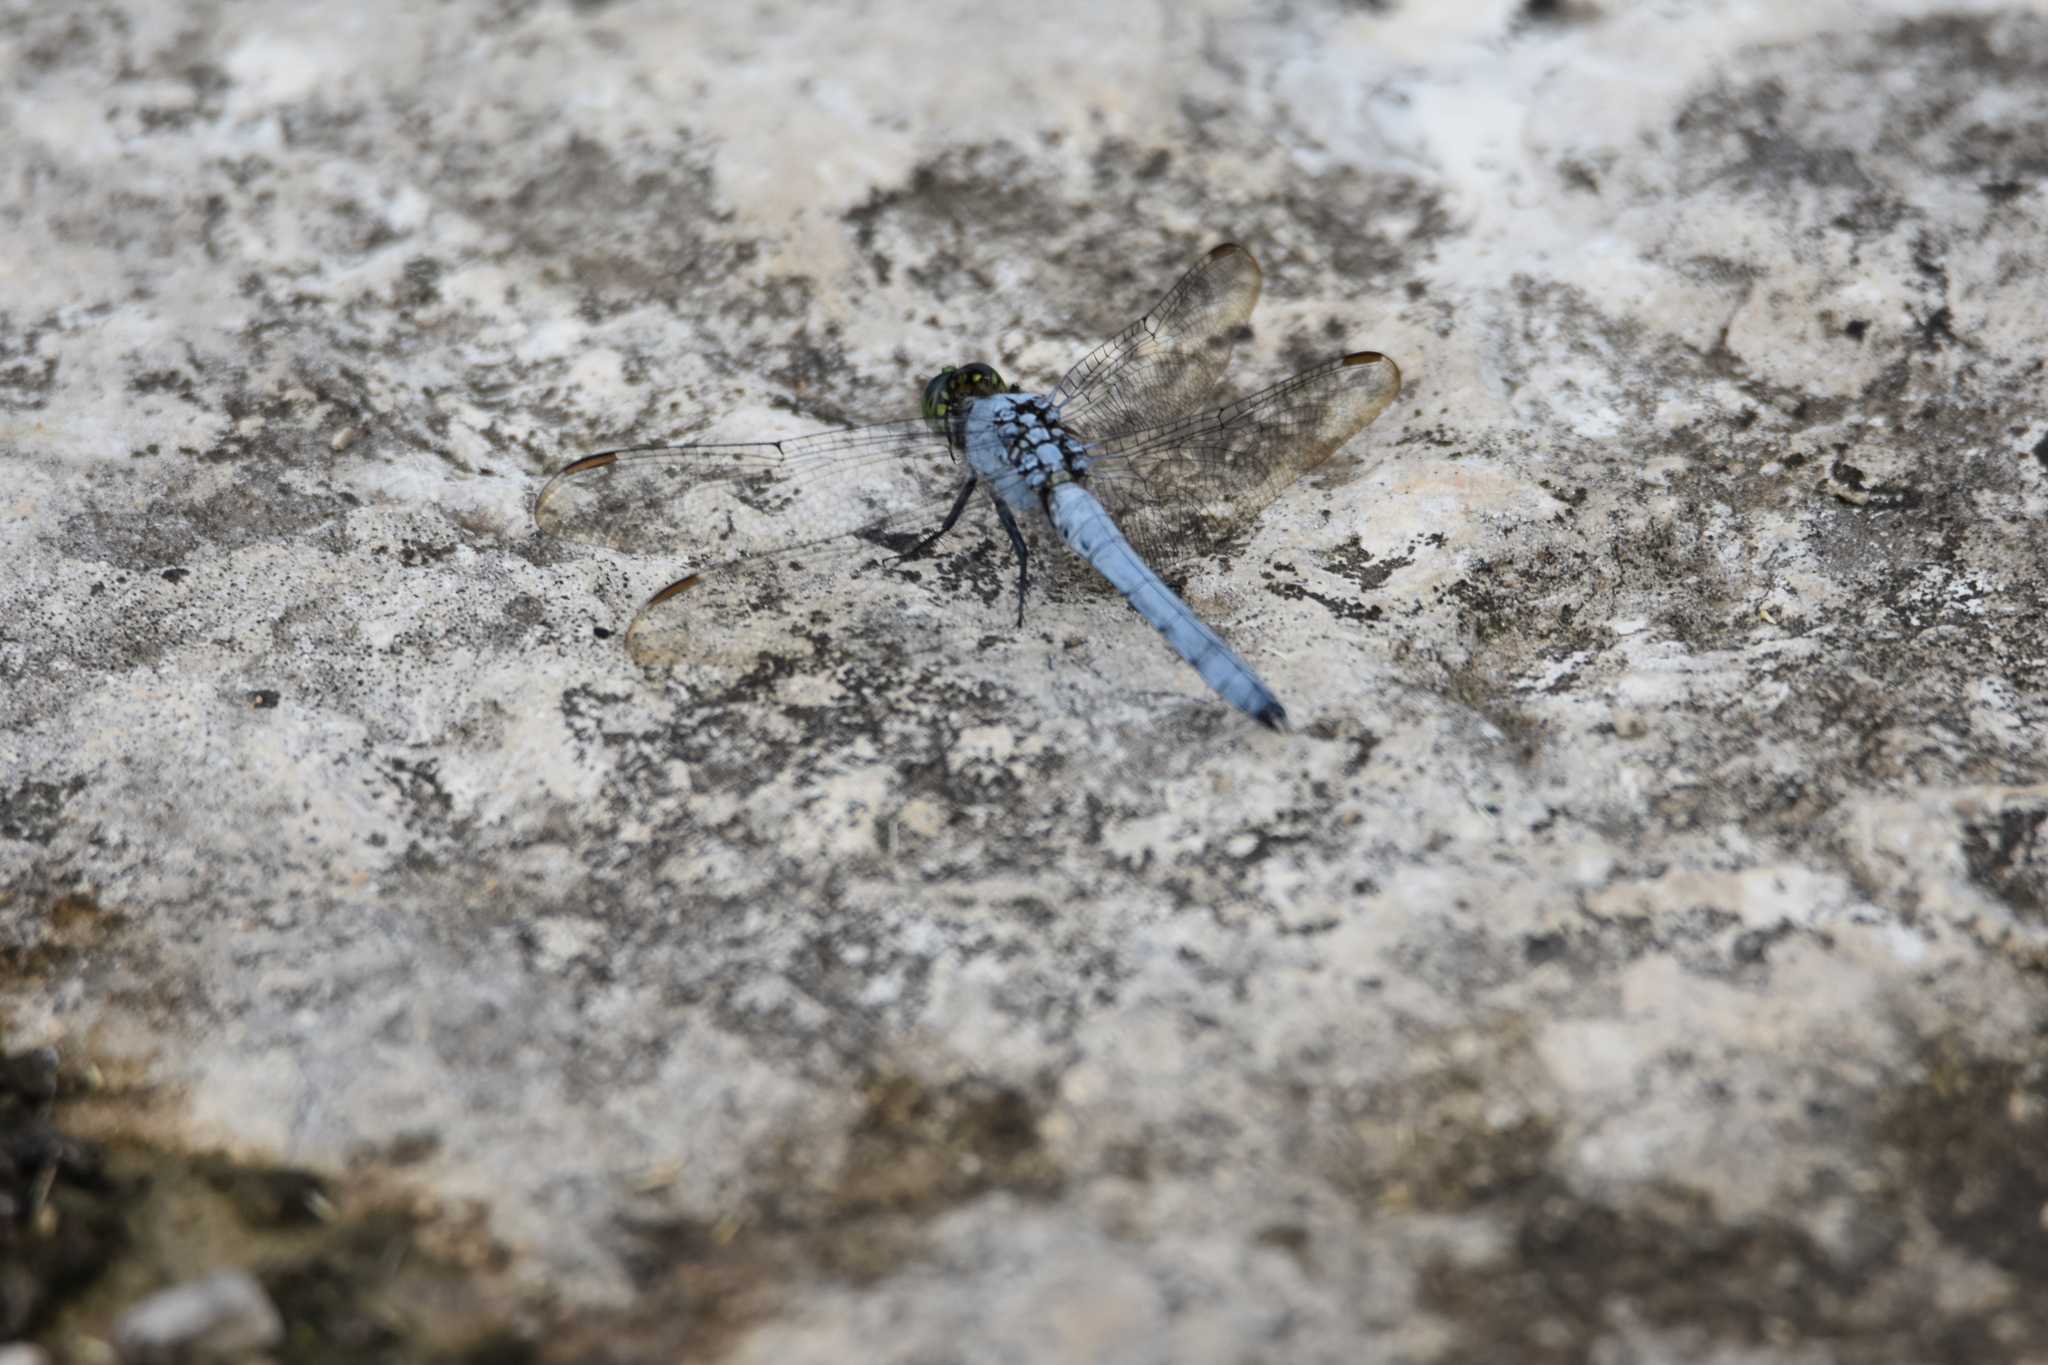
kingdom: Animalia
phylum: Arthropoda
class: Insecta
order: Odonata
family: Libellulidae
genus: Erythemis
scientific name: Erythemis simplicicollis
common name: Eastern pondhawk
